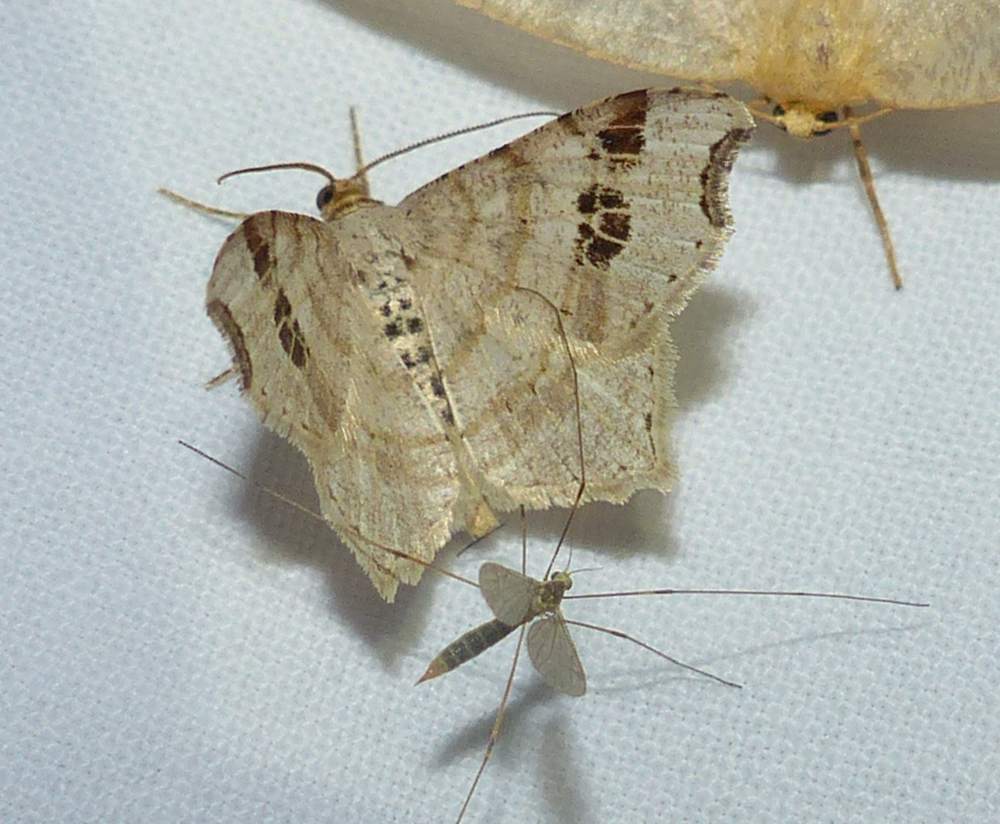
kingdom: Animalia
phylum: Arthropoda
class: Insecta
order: Lepidoptera
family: Geometridae
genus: Macaria
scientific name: Macaria aemulataria
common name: Common angle
